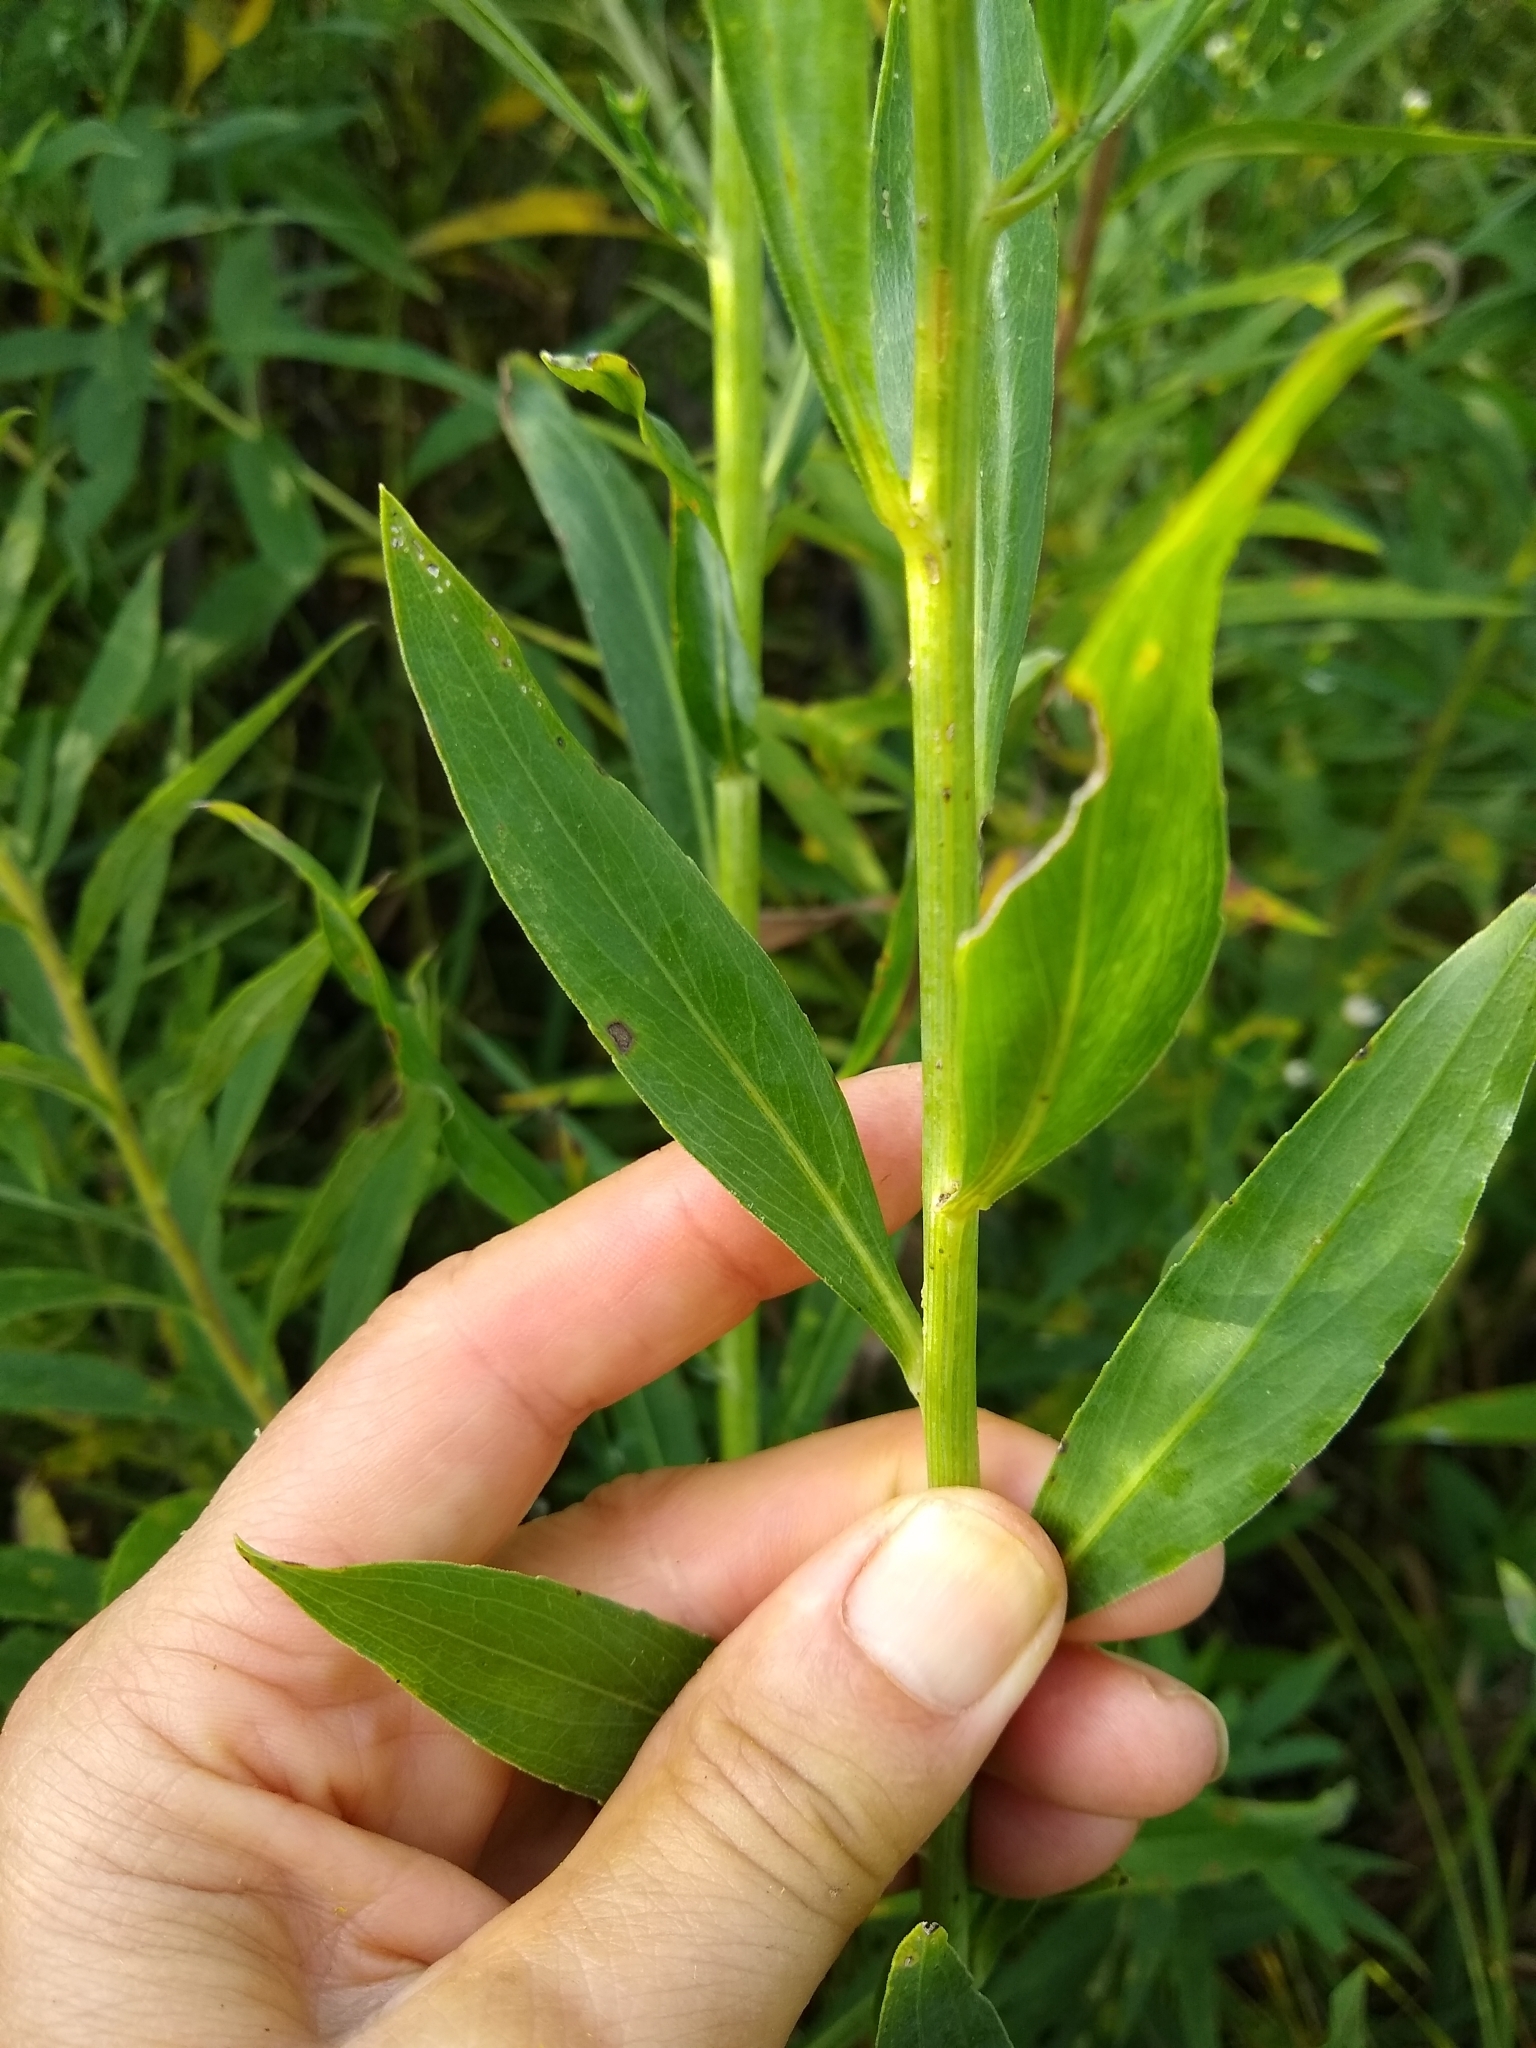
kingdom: Plantae
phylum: Tracheophyta
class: Magnoliopsida
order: Asterales
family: Asteraceae
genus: Boltonia
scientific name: Boltonia asteroides
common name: False chamomile
